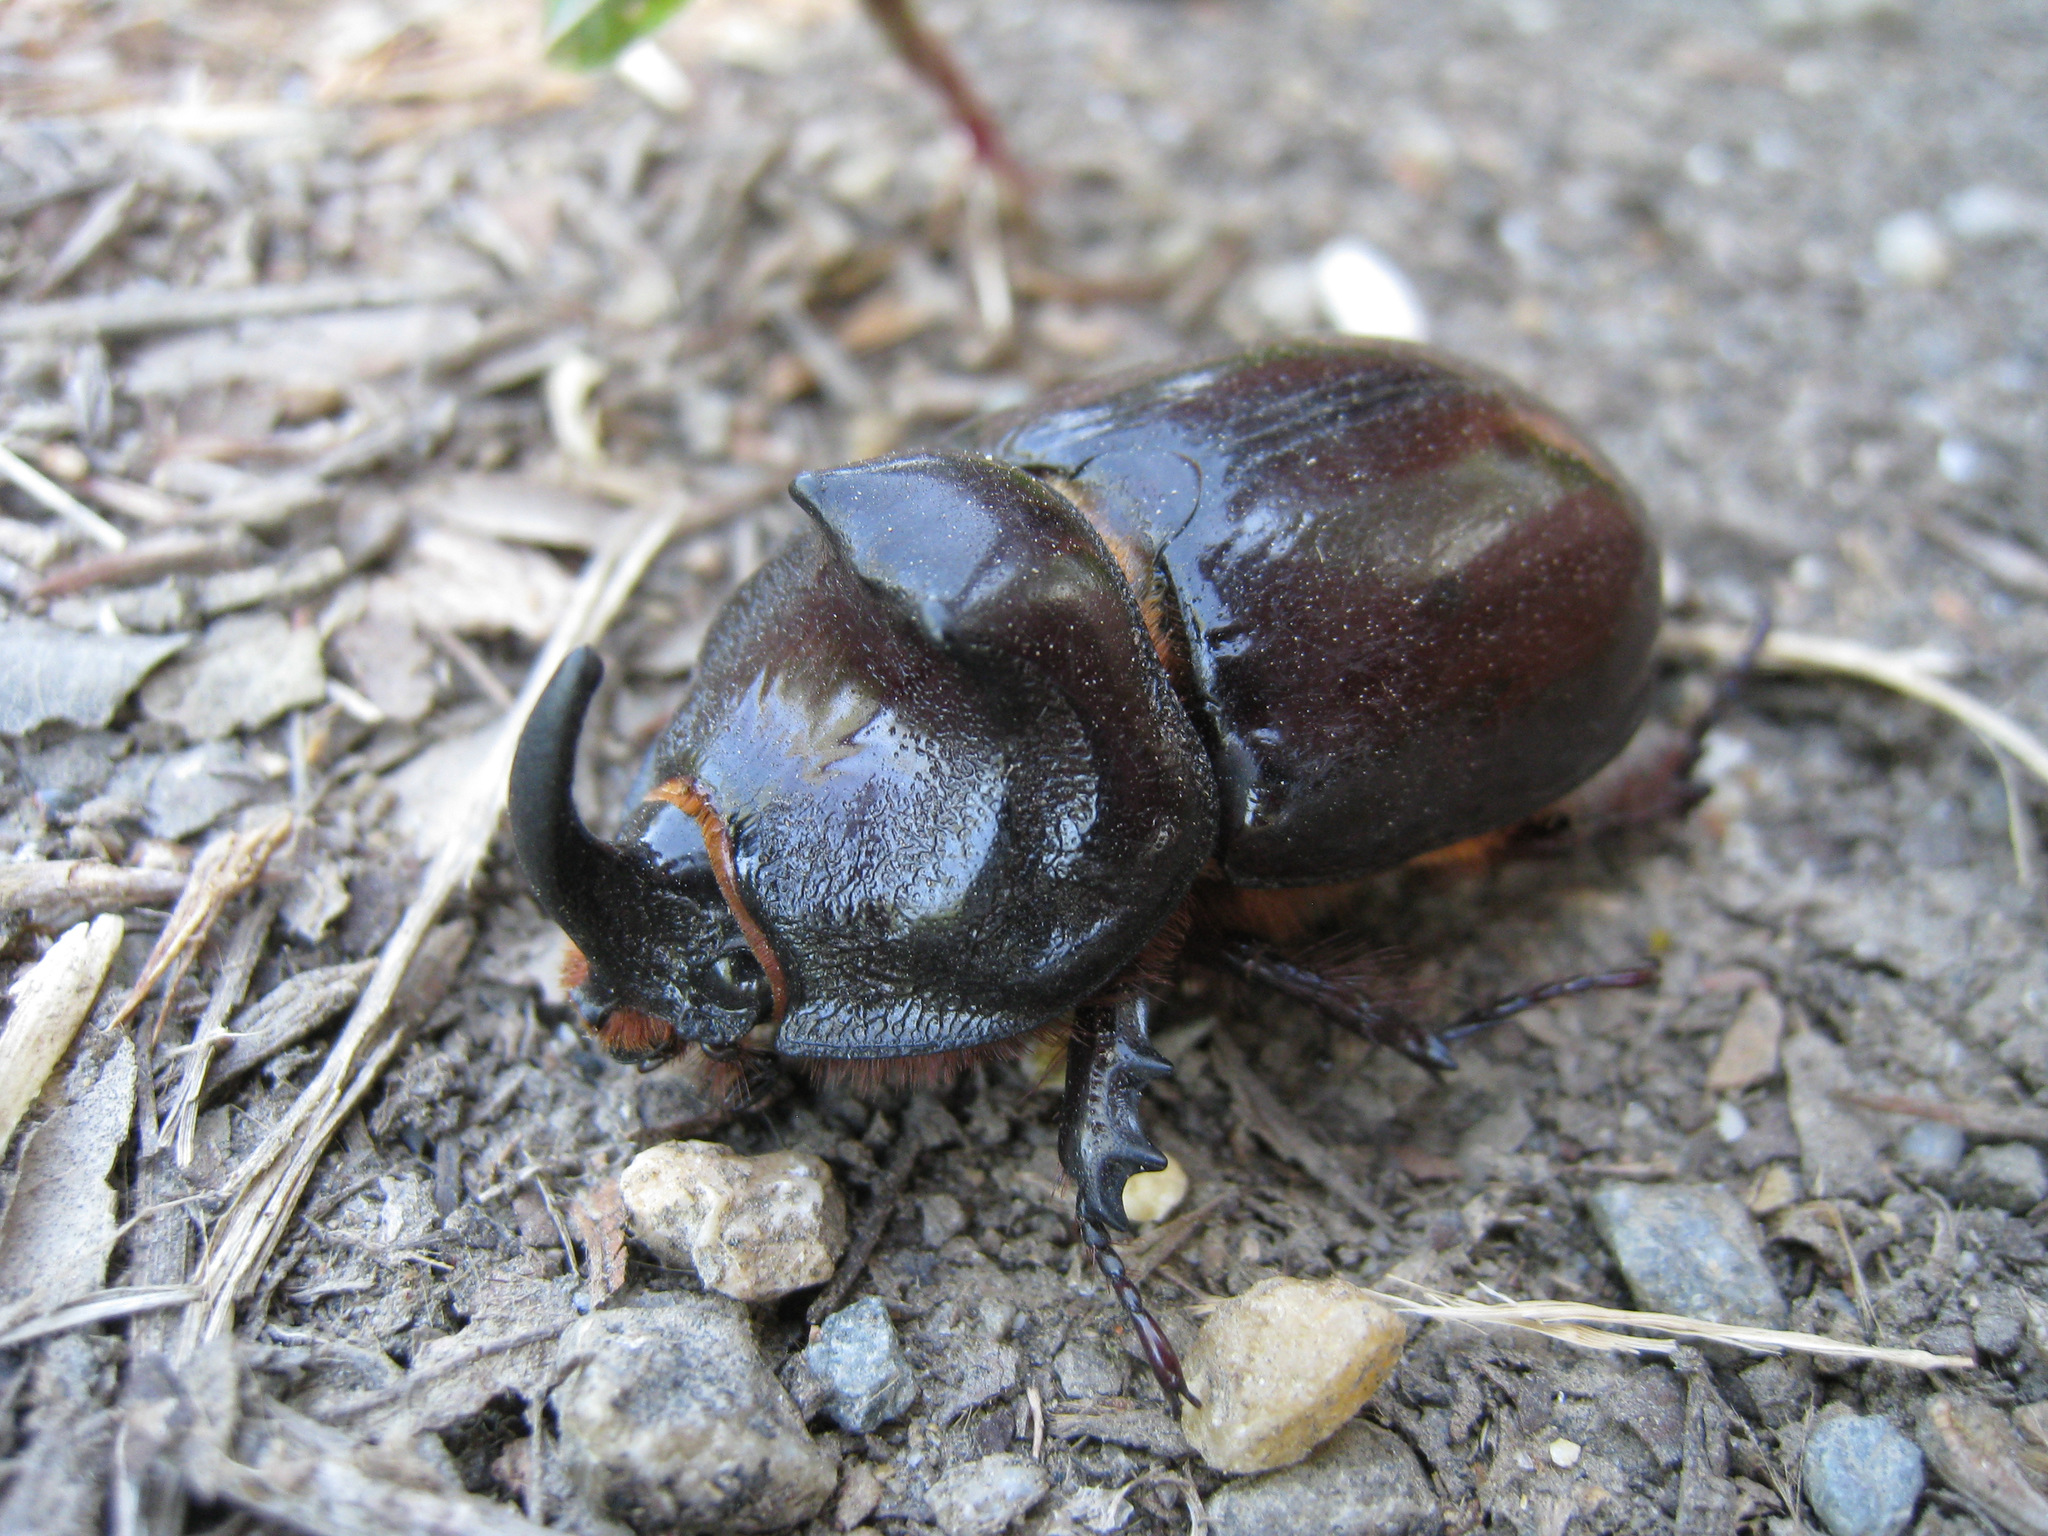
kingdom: Animalia
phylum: Arthropoda
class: Insecta
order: Coleoptera
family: Scarabaeidae
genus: Oryctes
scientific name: Oryctes nasicornis
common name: European rhinoceros beetle
